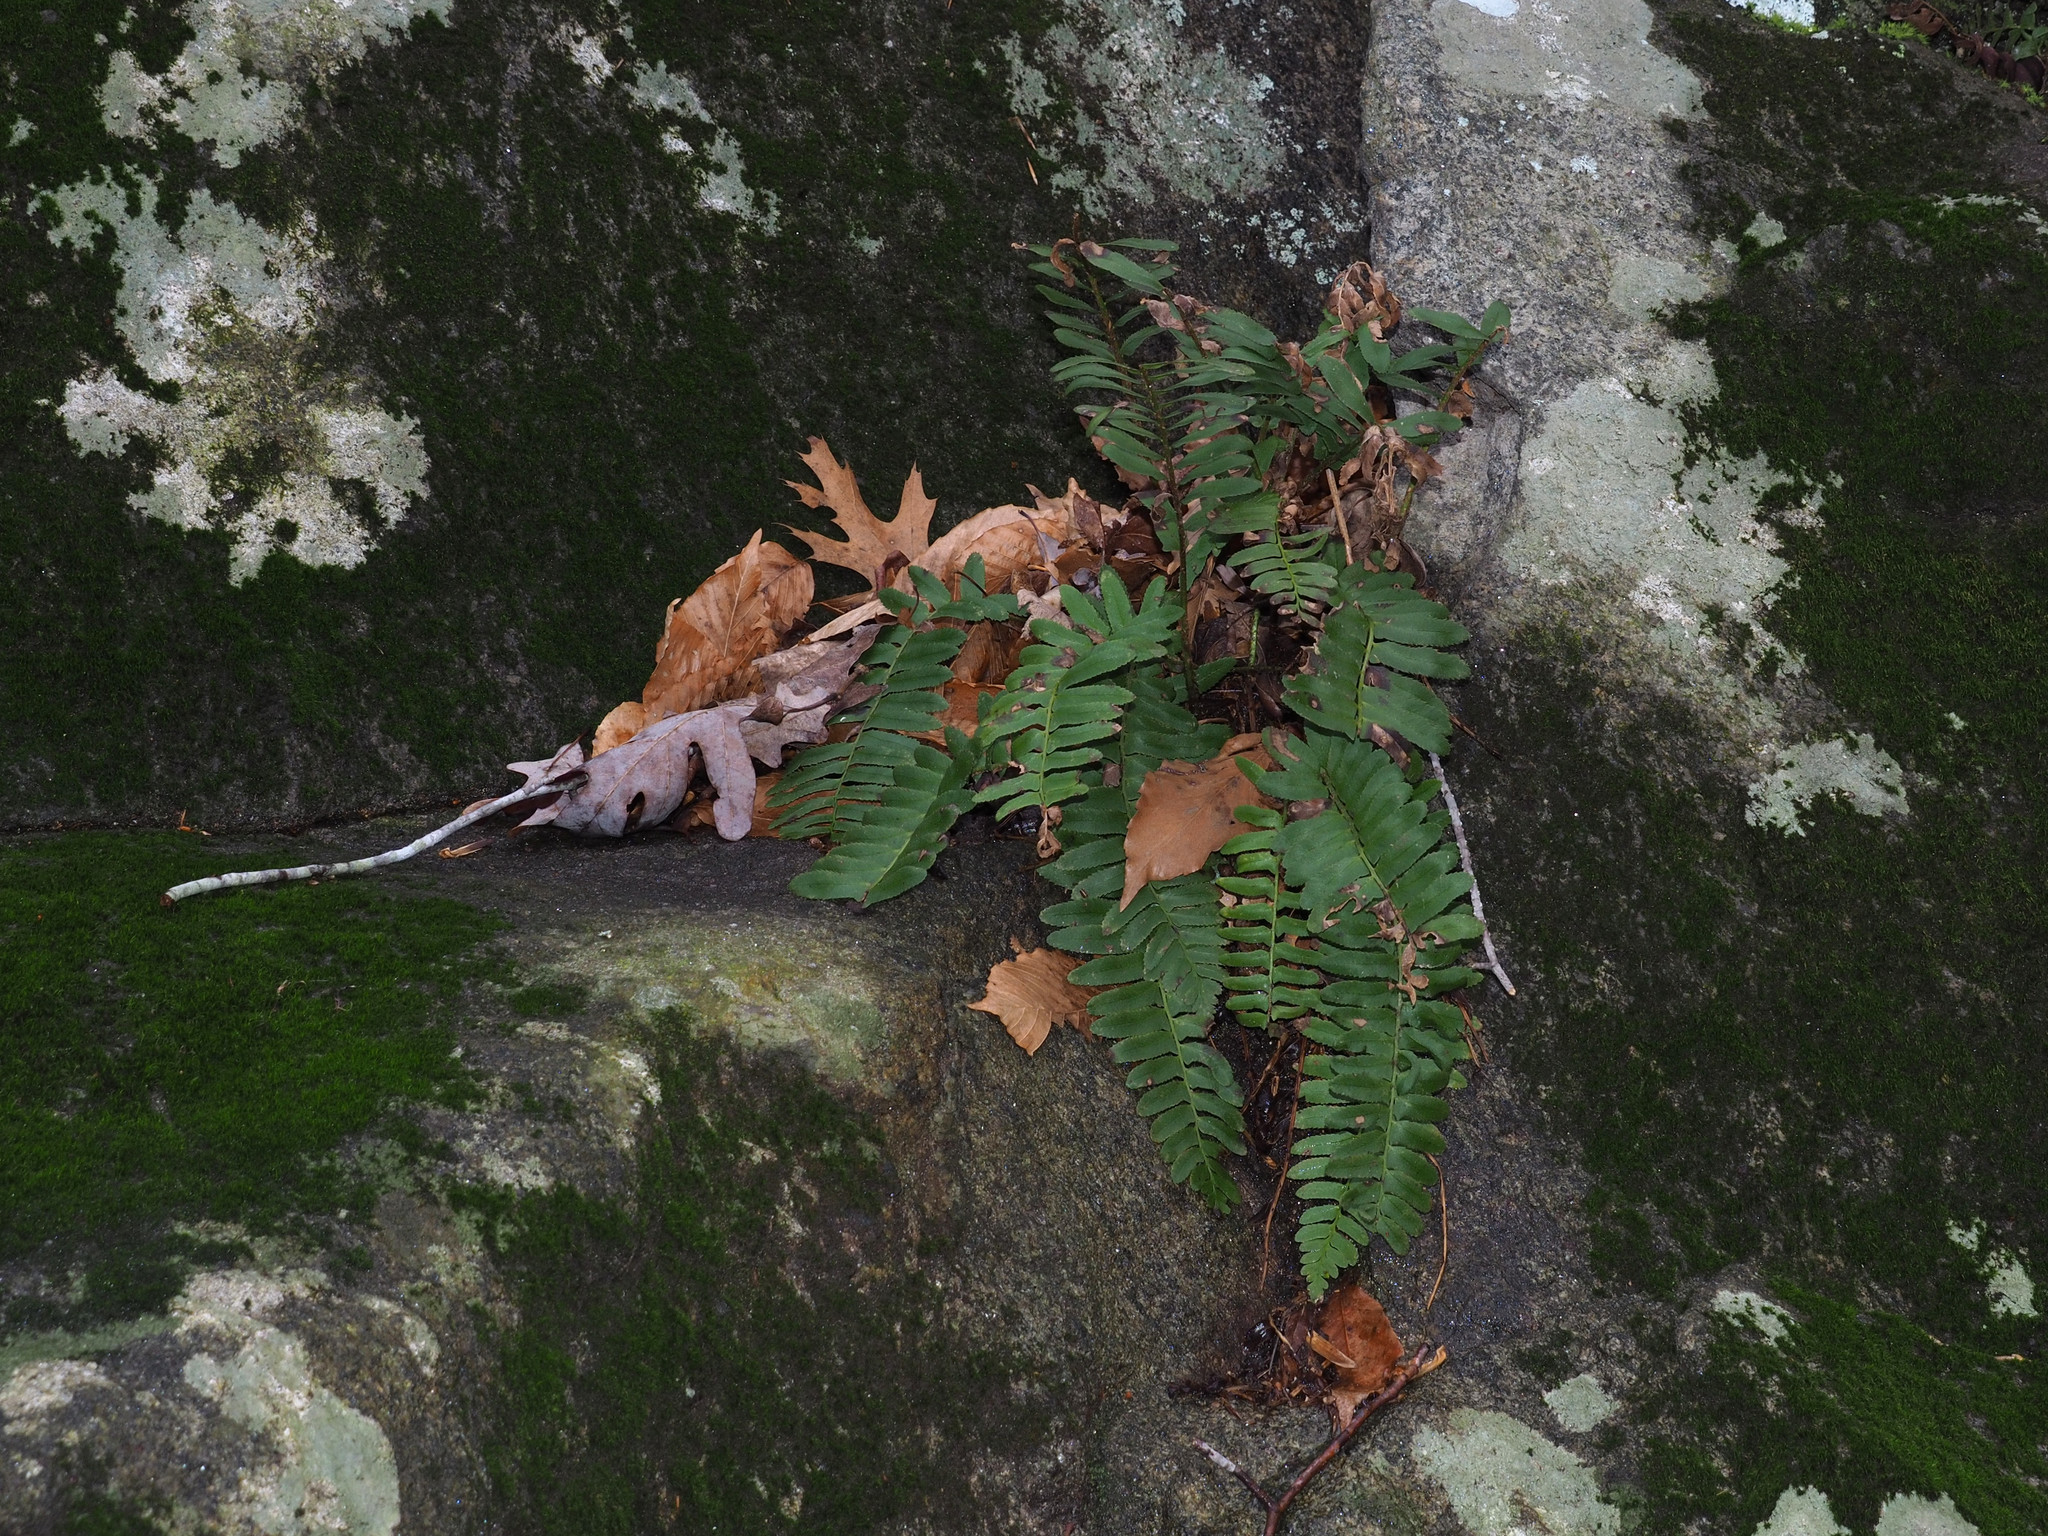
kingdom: Plantae
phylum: Tracheophyta
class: Polypodiopsida
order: Polypodiales
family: Dryopteridaceae
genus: Polystichum
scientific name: Polystichum acrostichoides
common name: Christmas fern
